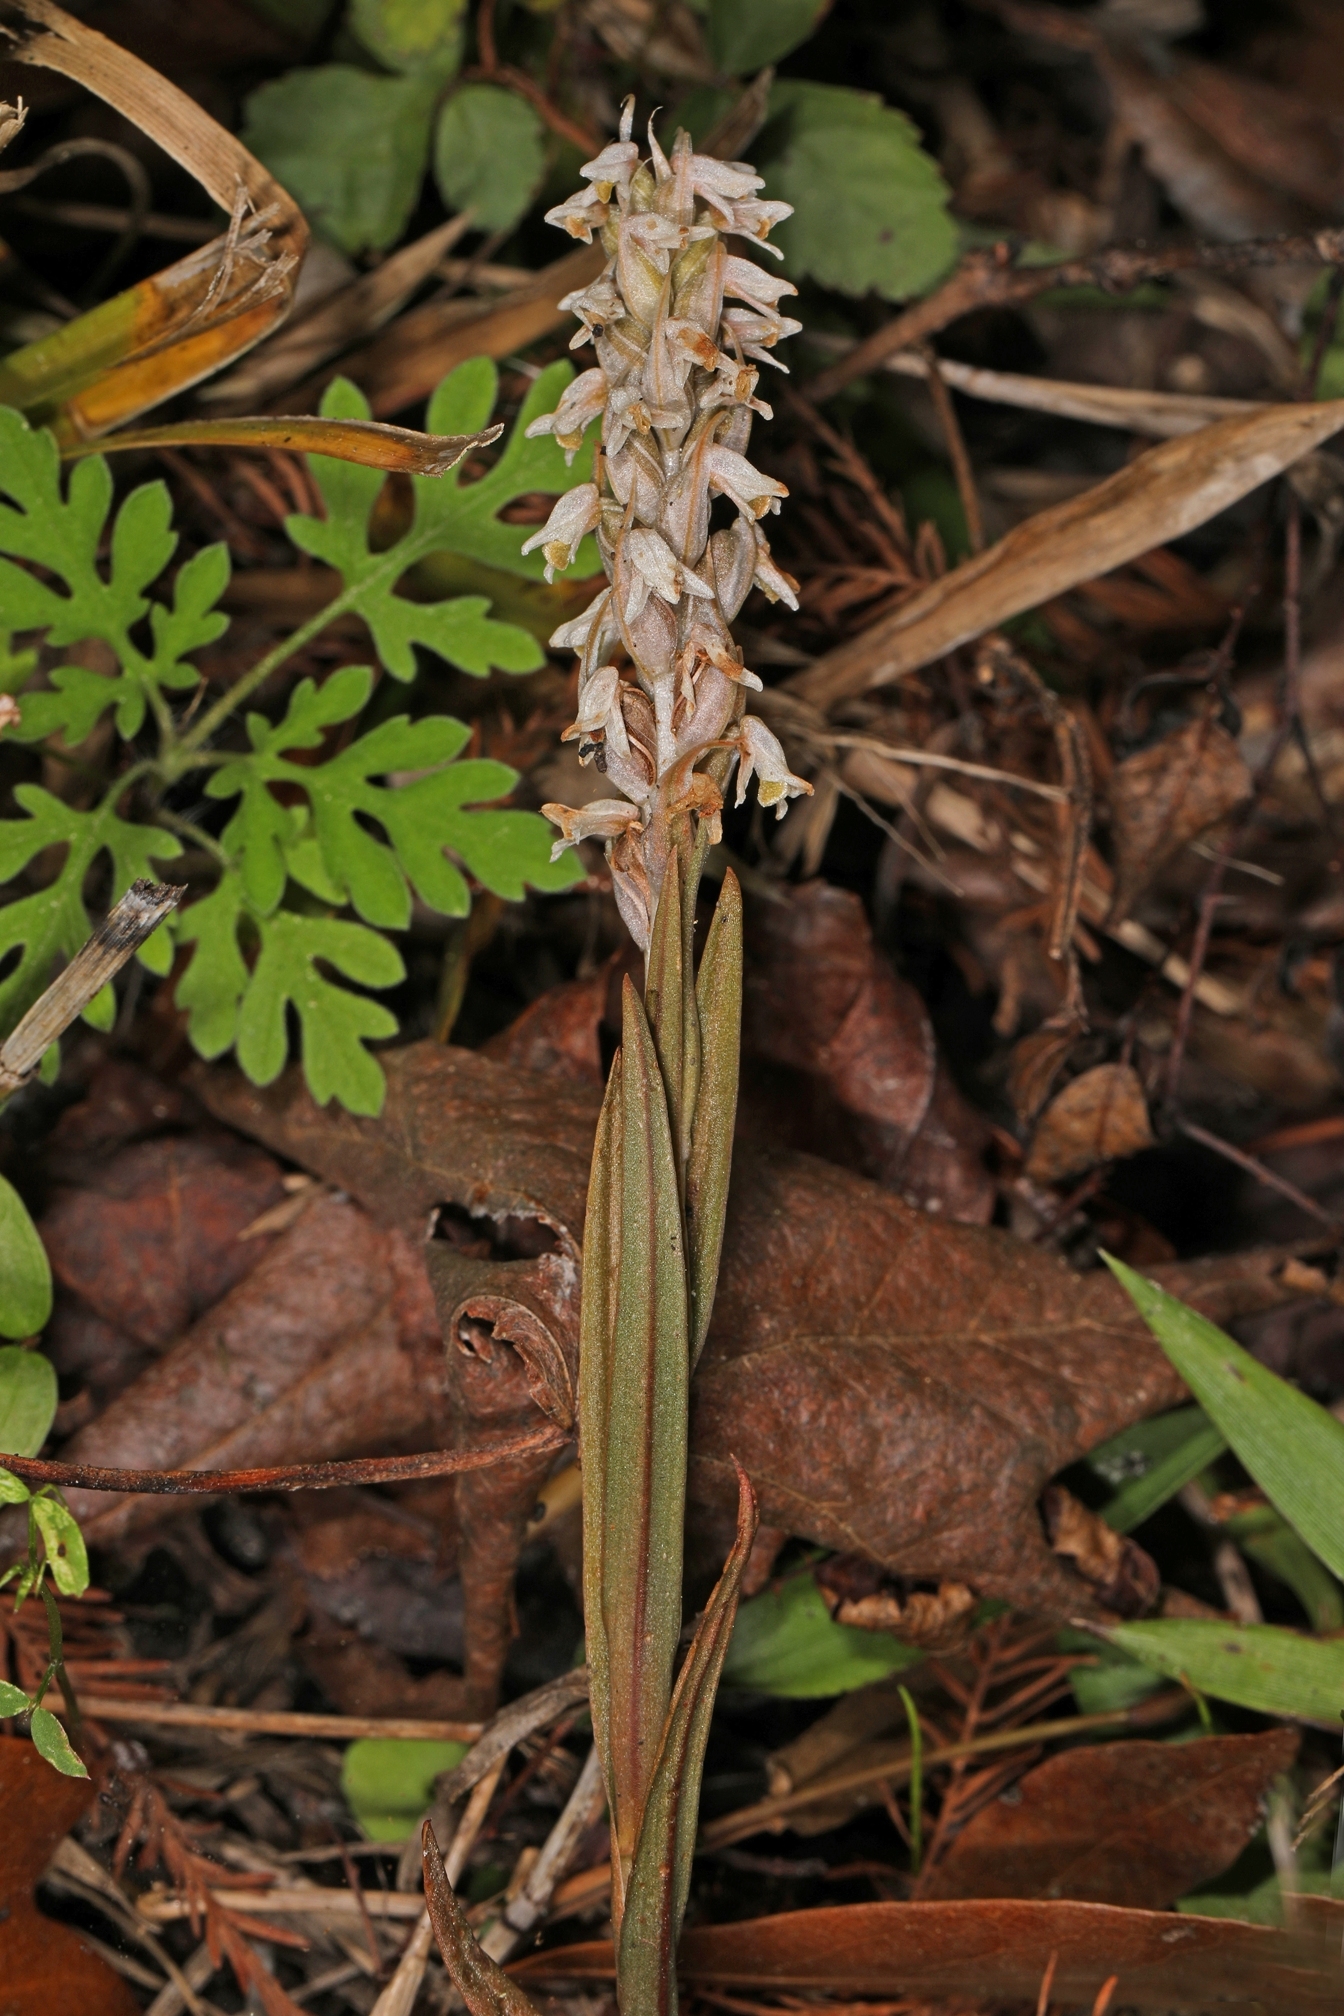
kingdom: Plantae
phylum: Tracheophyta
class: Liliopsida
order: Asparagales
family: Orchidaceae
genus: Zeuxine
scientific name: Zeuxine strateumatica
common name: Soldier's orchid
